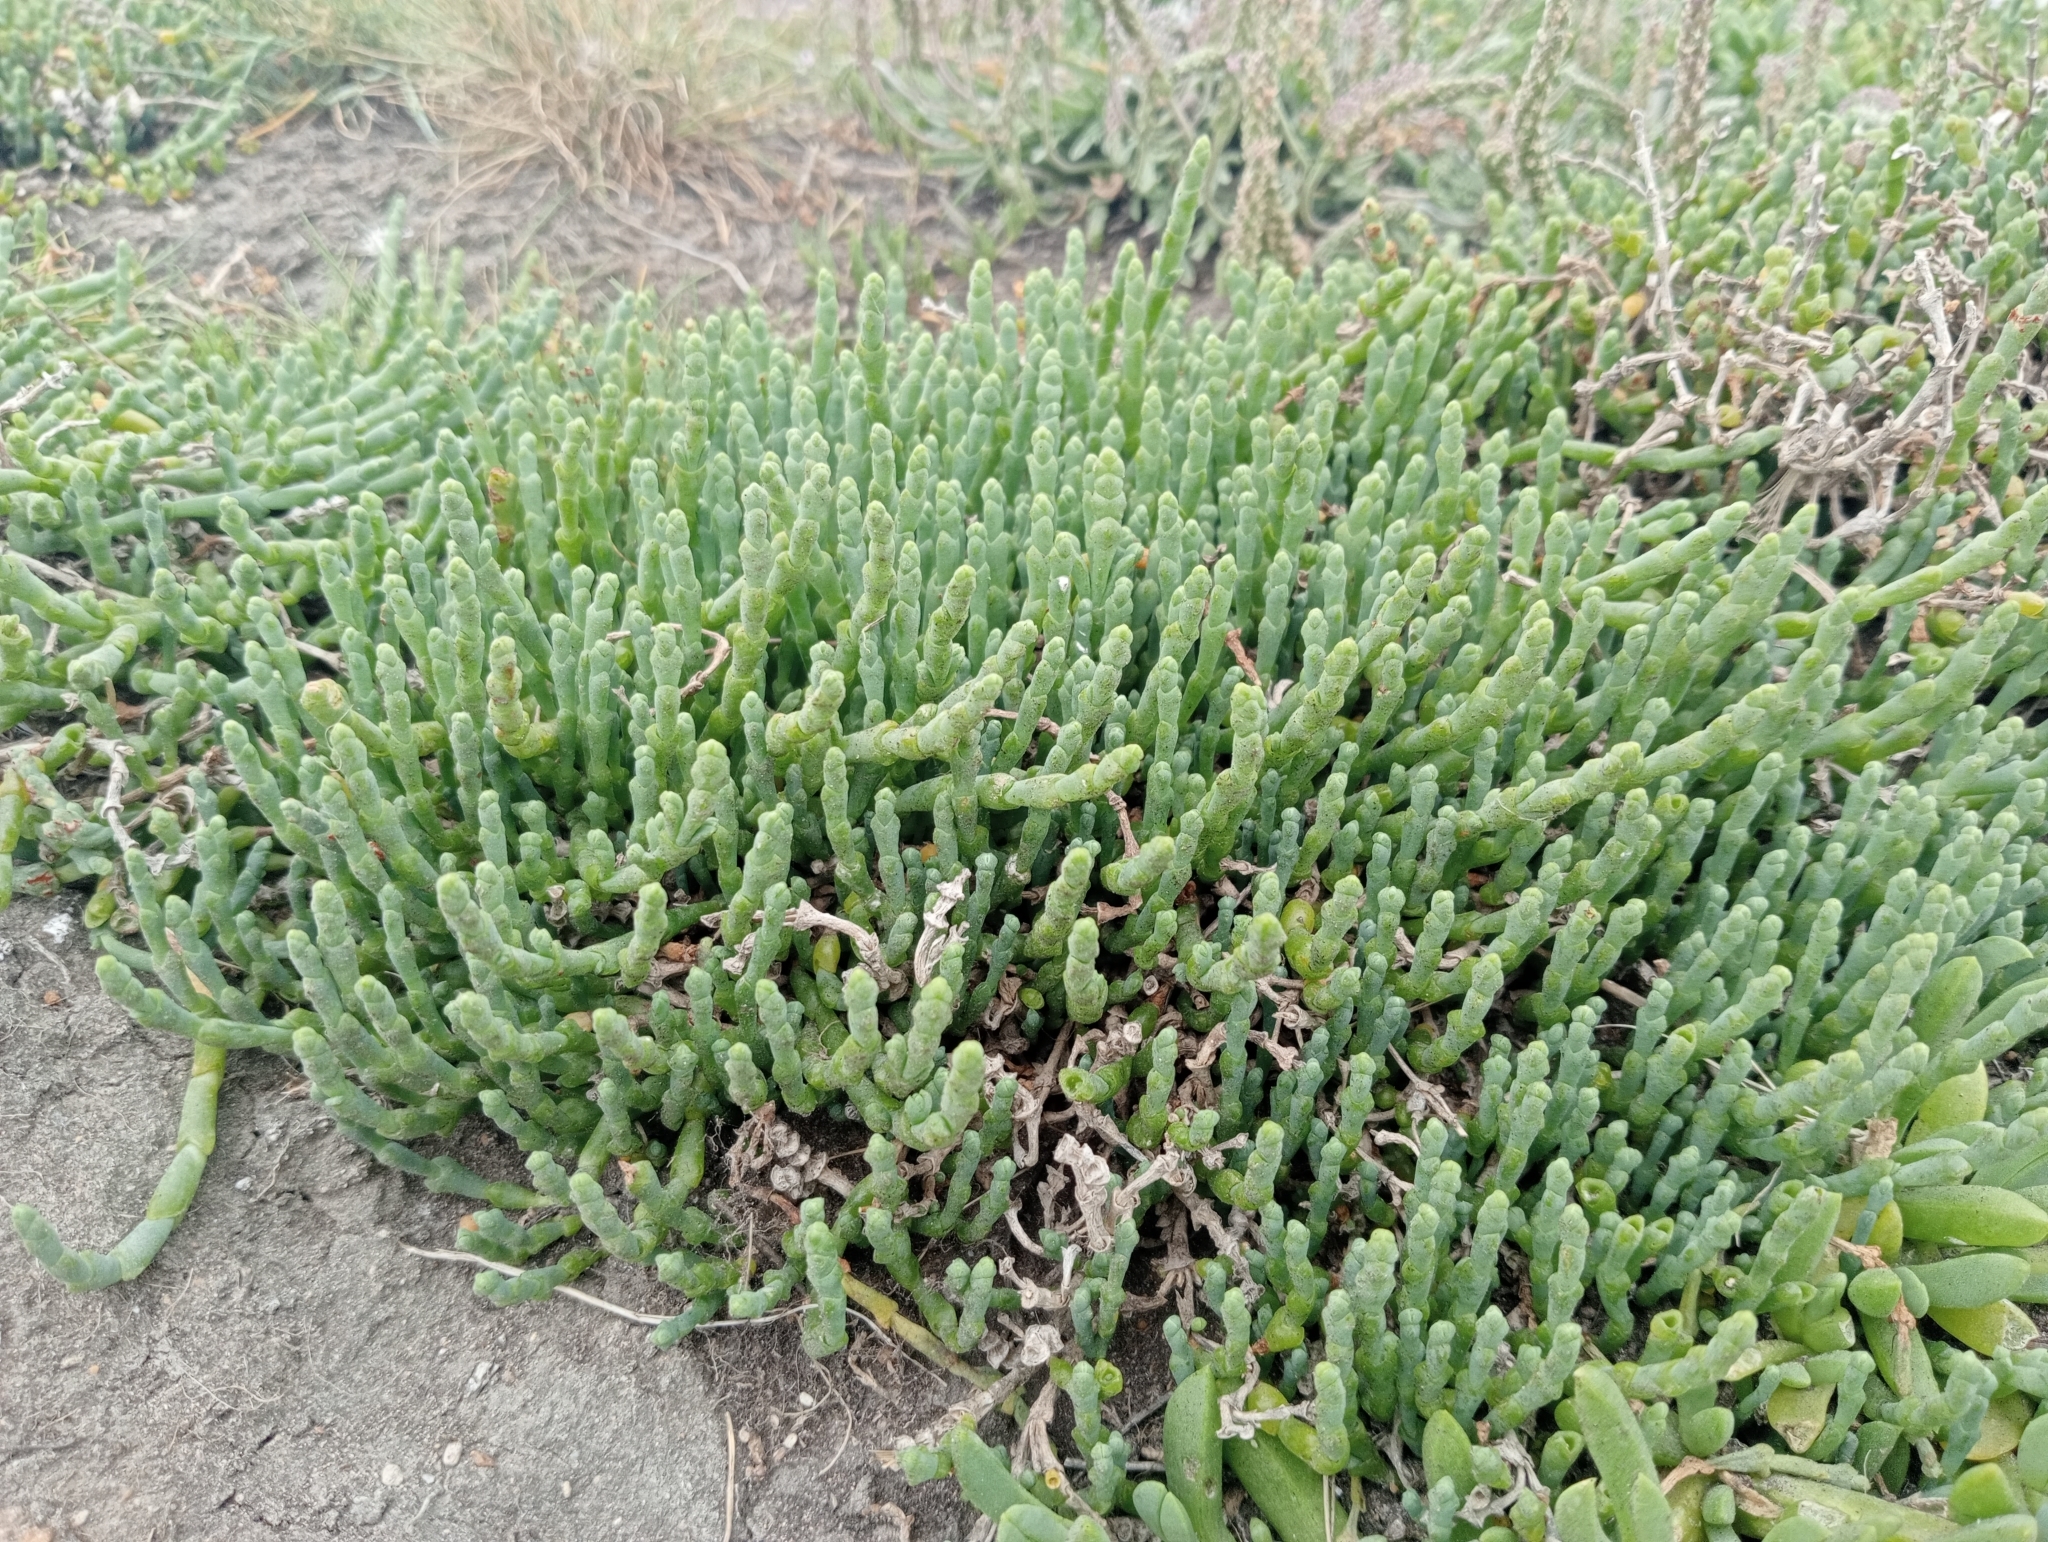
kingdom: Plantae
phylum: Tracheophyta
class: Magnoliopsida
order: Caryophyllales
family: Amaranthaceae
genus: Salicornia
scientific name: Salicornia quinqueflora
